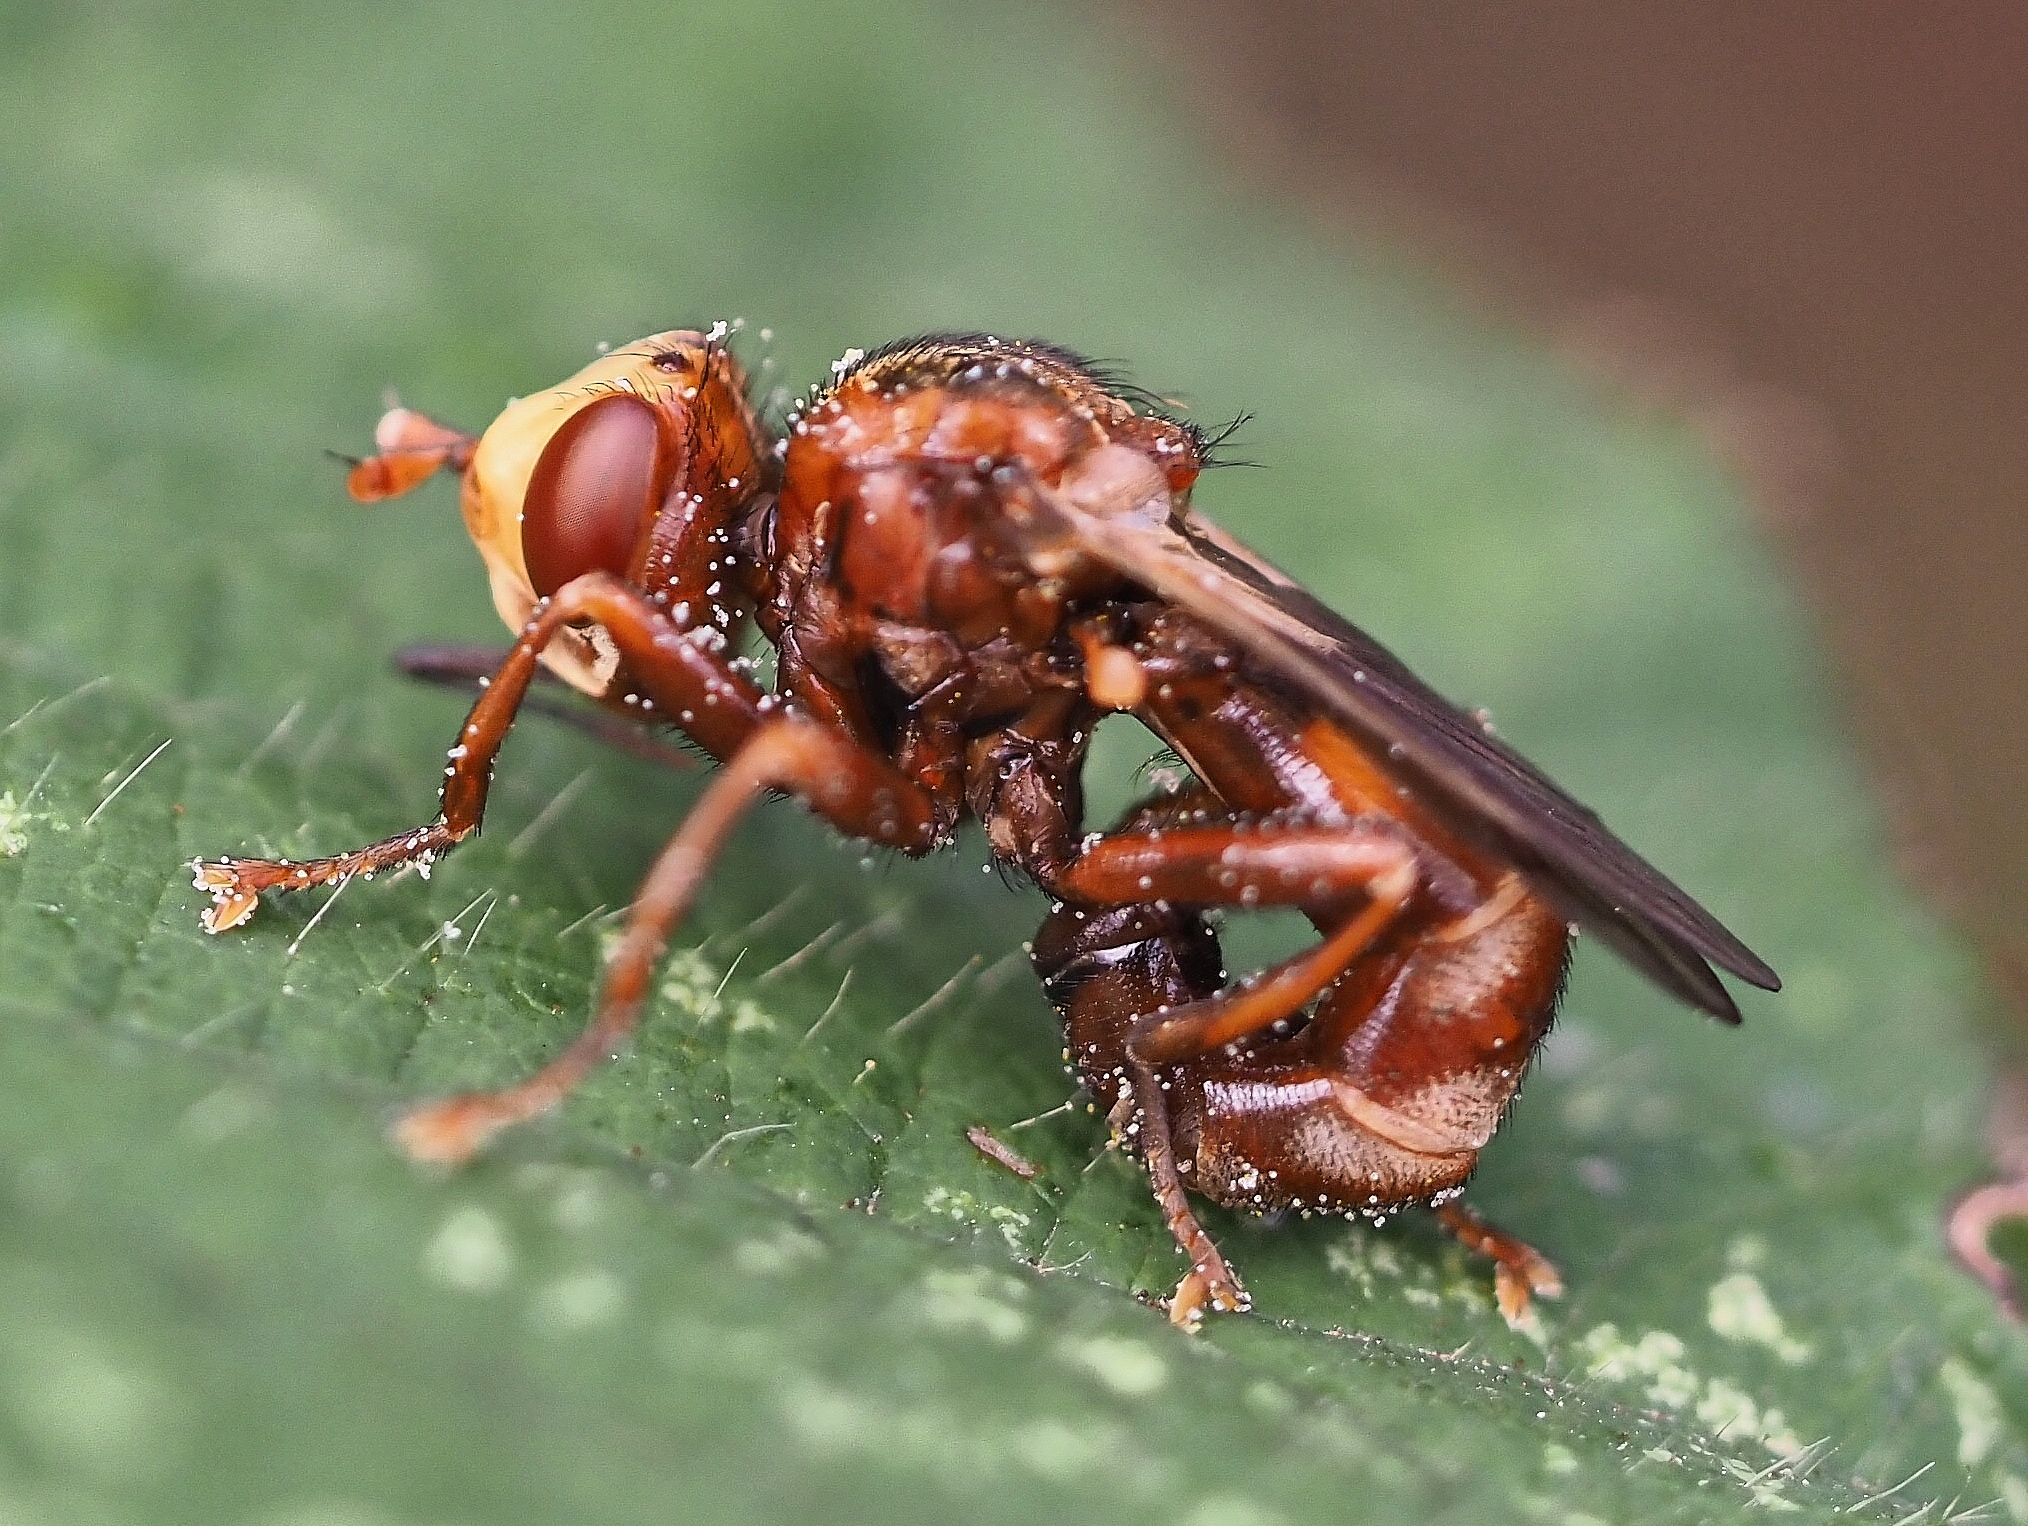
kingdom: Animalia
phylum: Arthropoda
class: Insecta
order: Diptera
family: Conopidae
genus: Sicus
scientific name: Sicus ferrugineus
